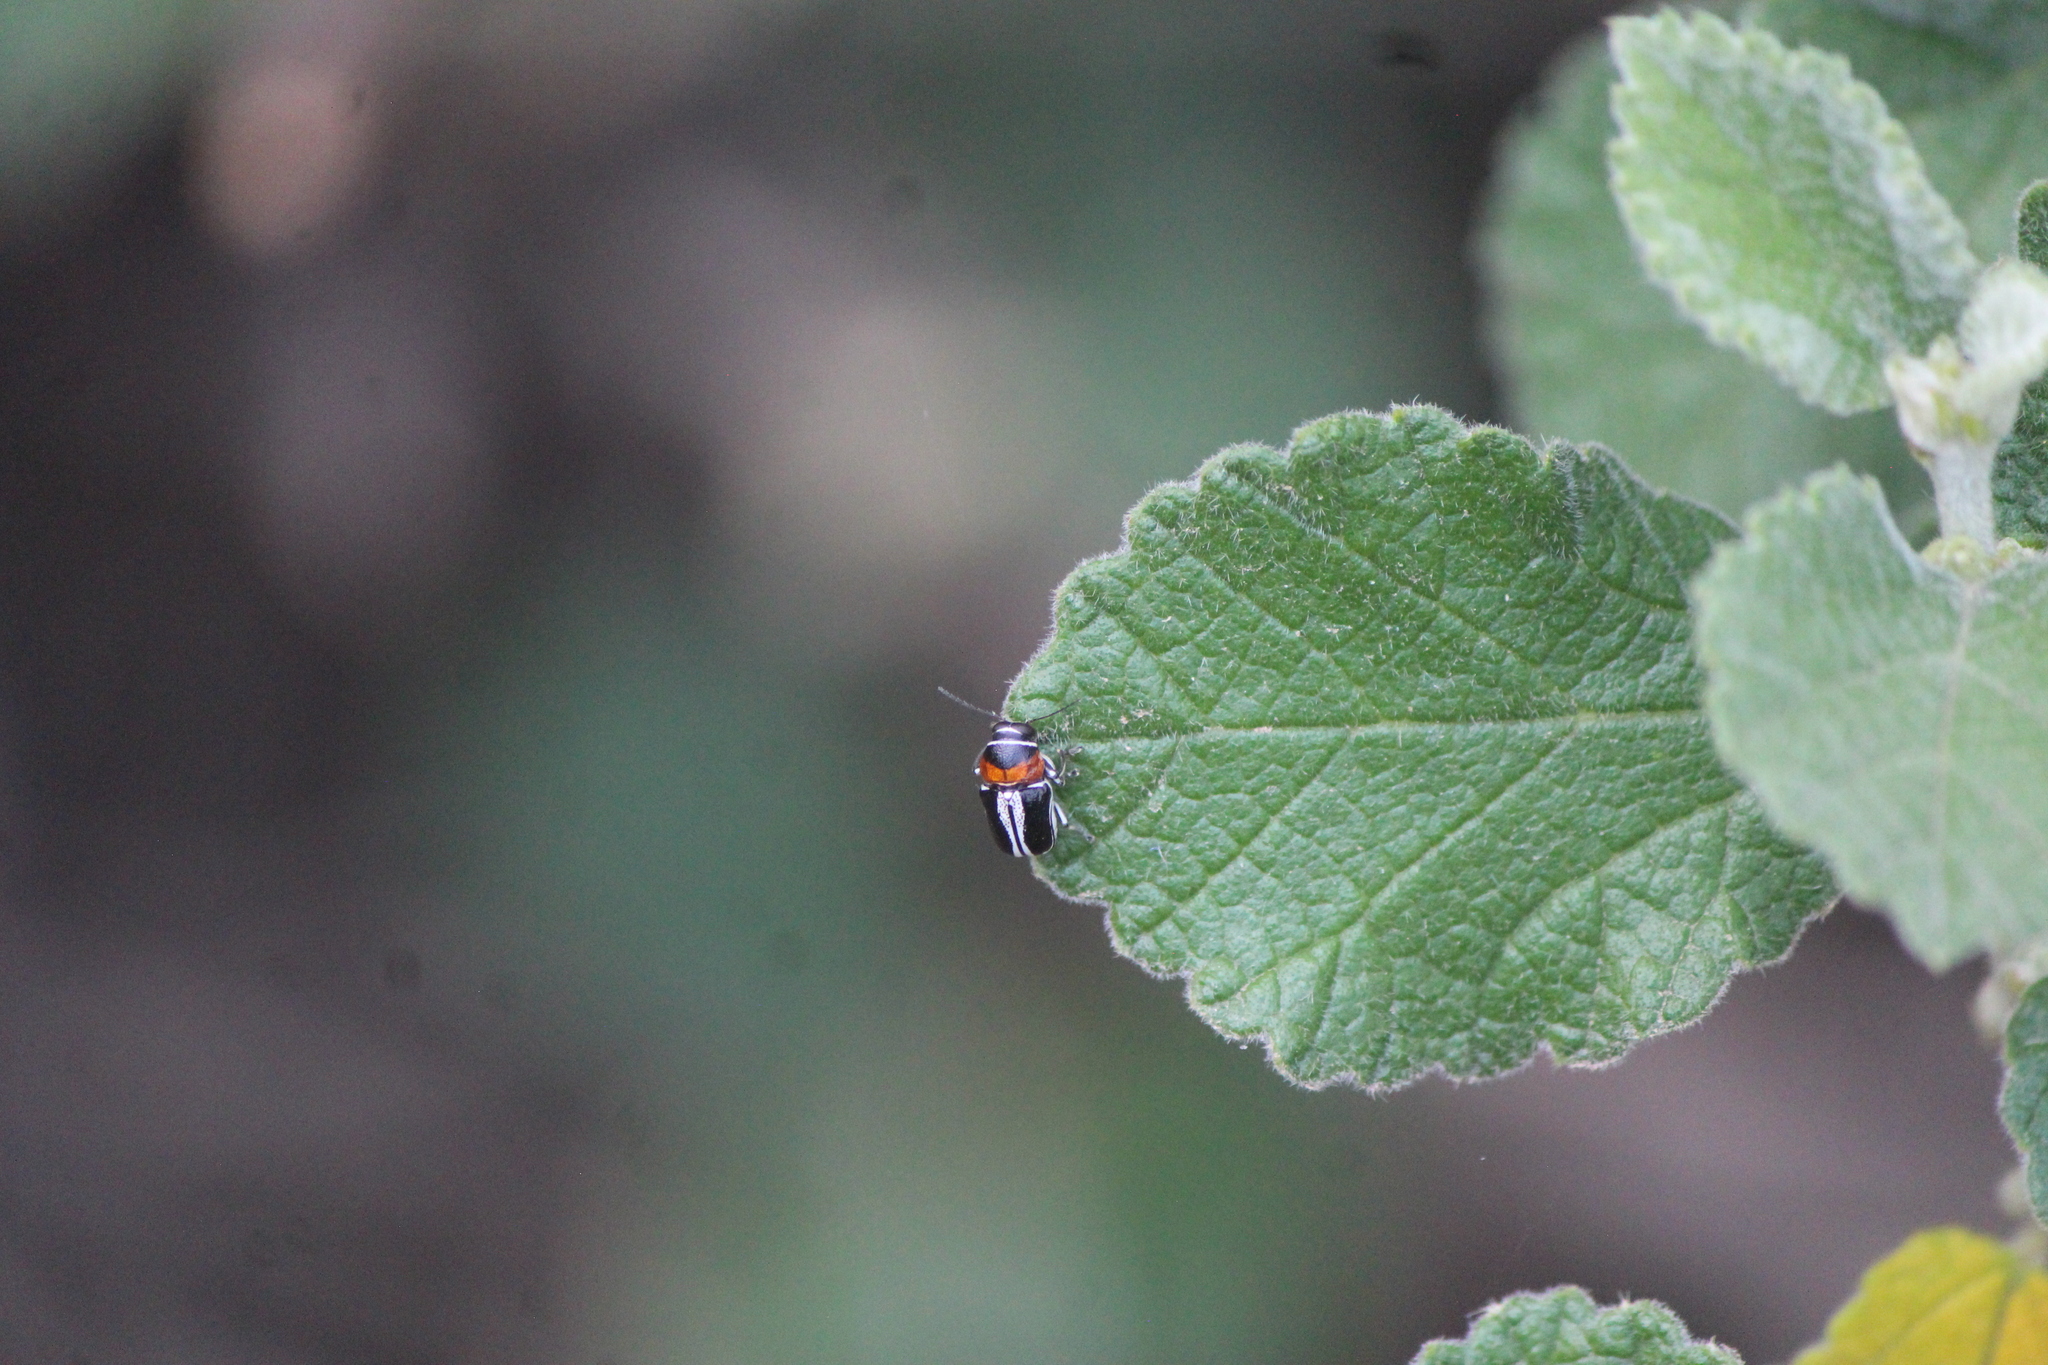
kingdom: Animalia
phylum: Arthropoda
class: Insecta
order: Coleoptera
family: Chrysomelidae
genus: Griburius
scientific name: Griburius montezuma
